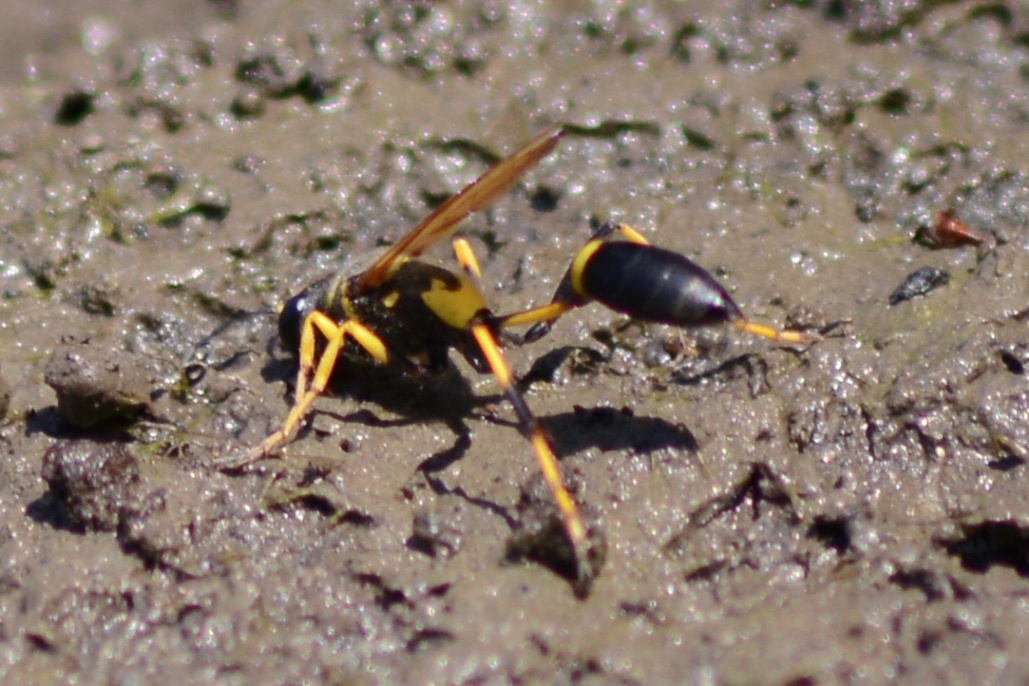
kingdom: Animalia
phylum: Arthropoda
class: Insecta
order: Hymenoptera
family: Sphecidae
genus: Sceliphron
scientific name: Sceliphron caementarium
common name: Mud dauber
